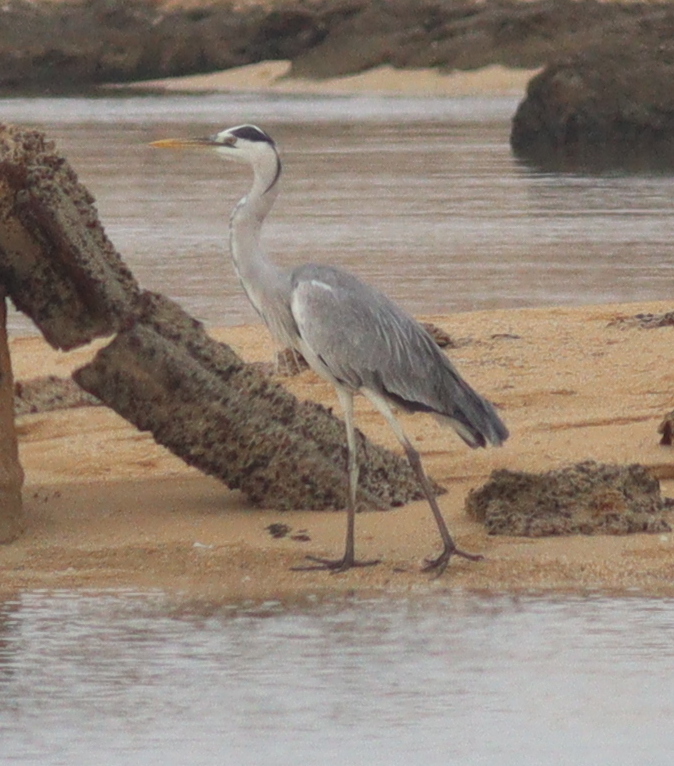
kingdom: Animalia
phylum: Chordata
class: Aves
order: Pelecaniformes
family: Ardeidae
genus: Ardea
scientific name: Ardea cinerea
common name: Grey heron
